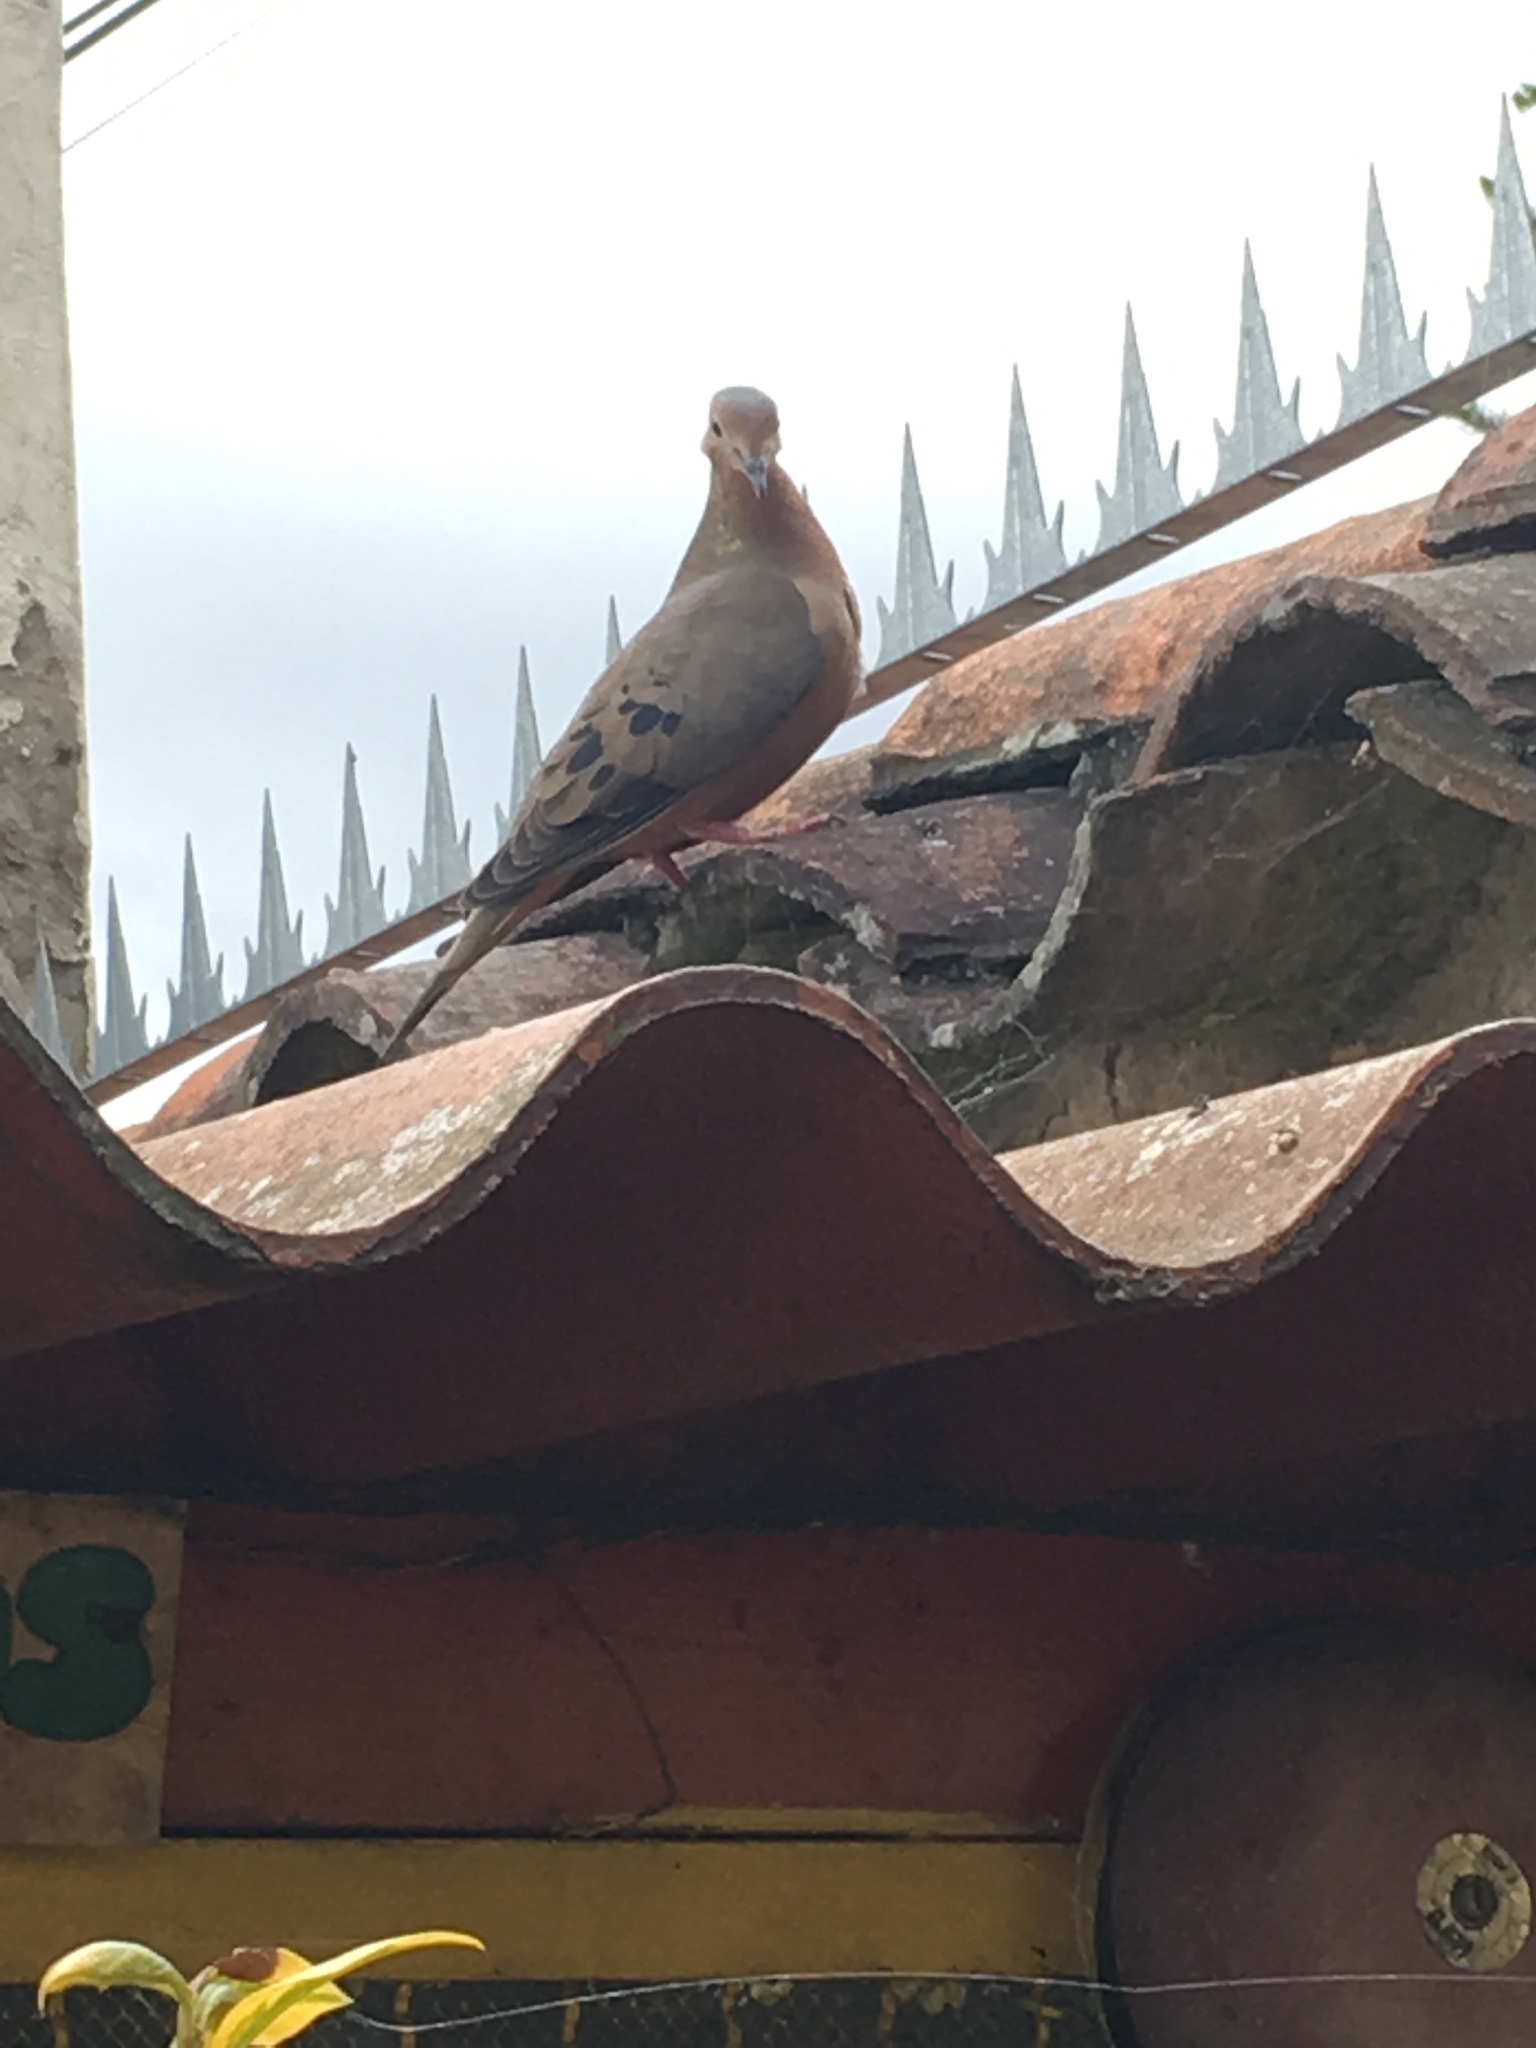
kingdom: Animalia
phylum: Chordata
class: Aves
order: Columbiformes
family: Columbidae
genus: Zenaida
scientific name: Zenaida auriculata
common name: Eared dove
